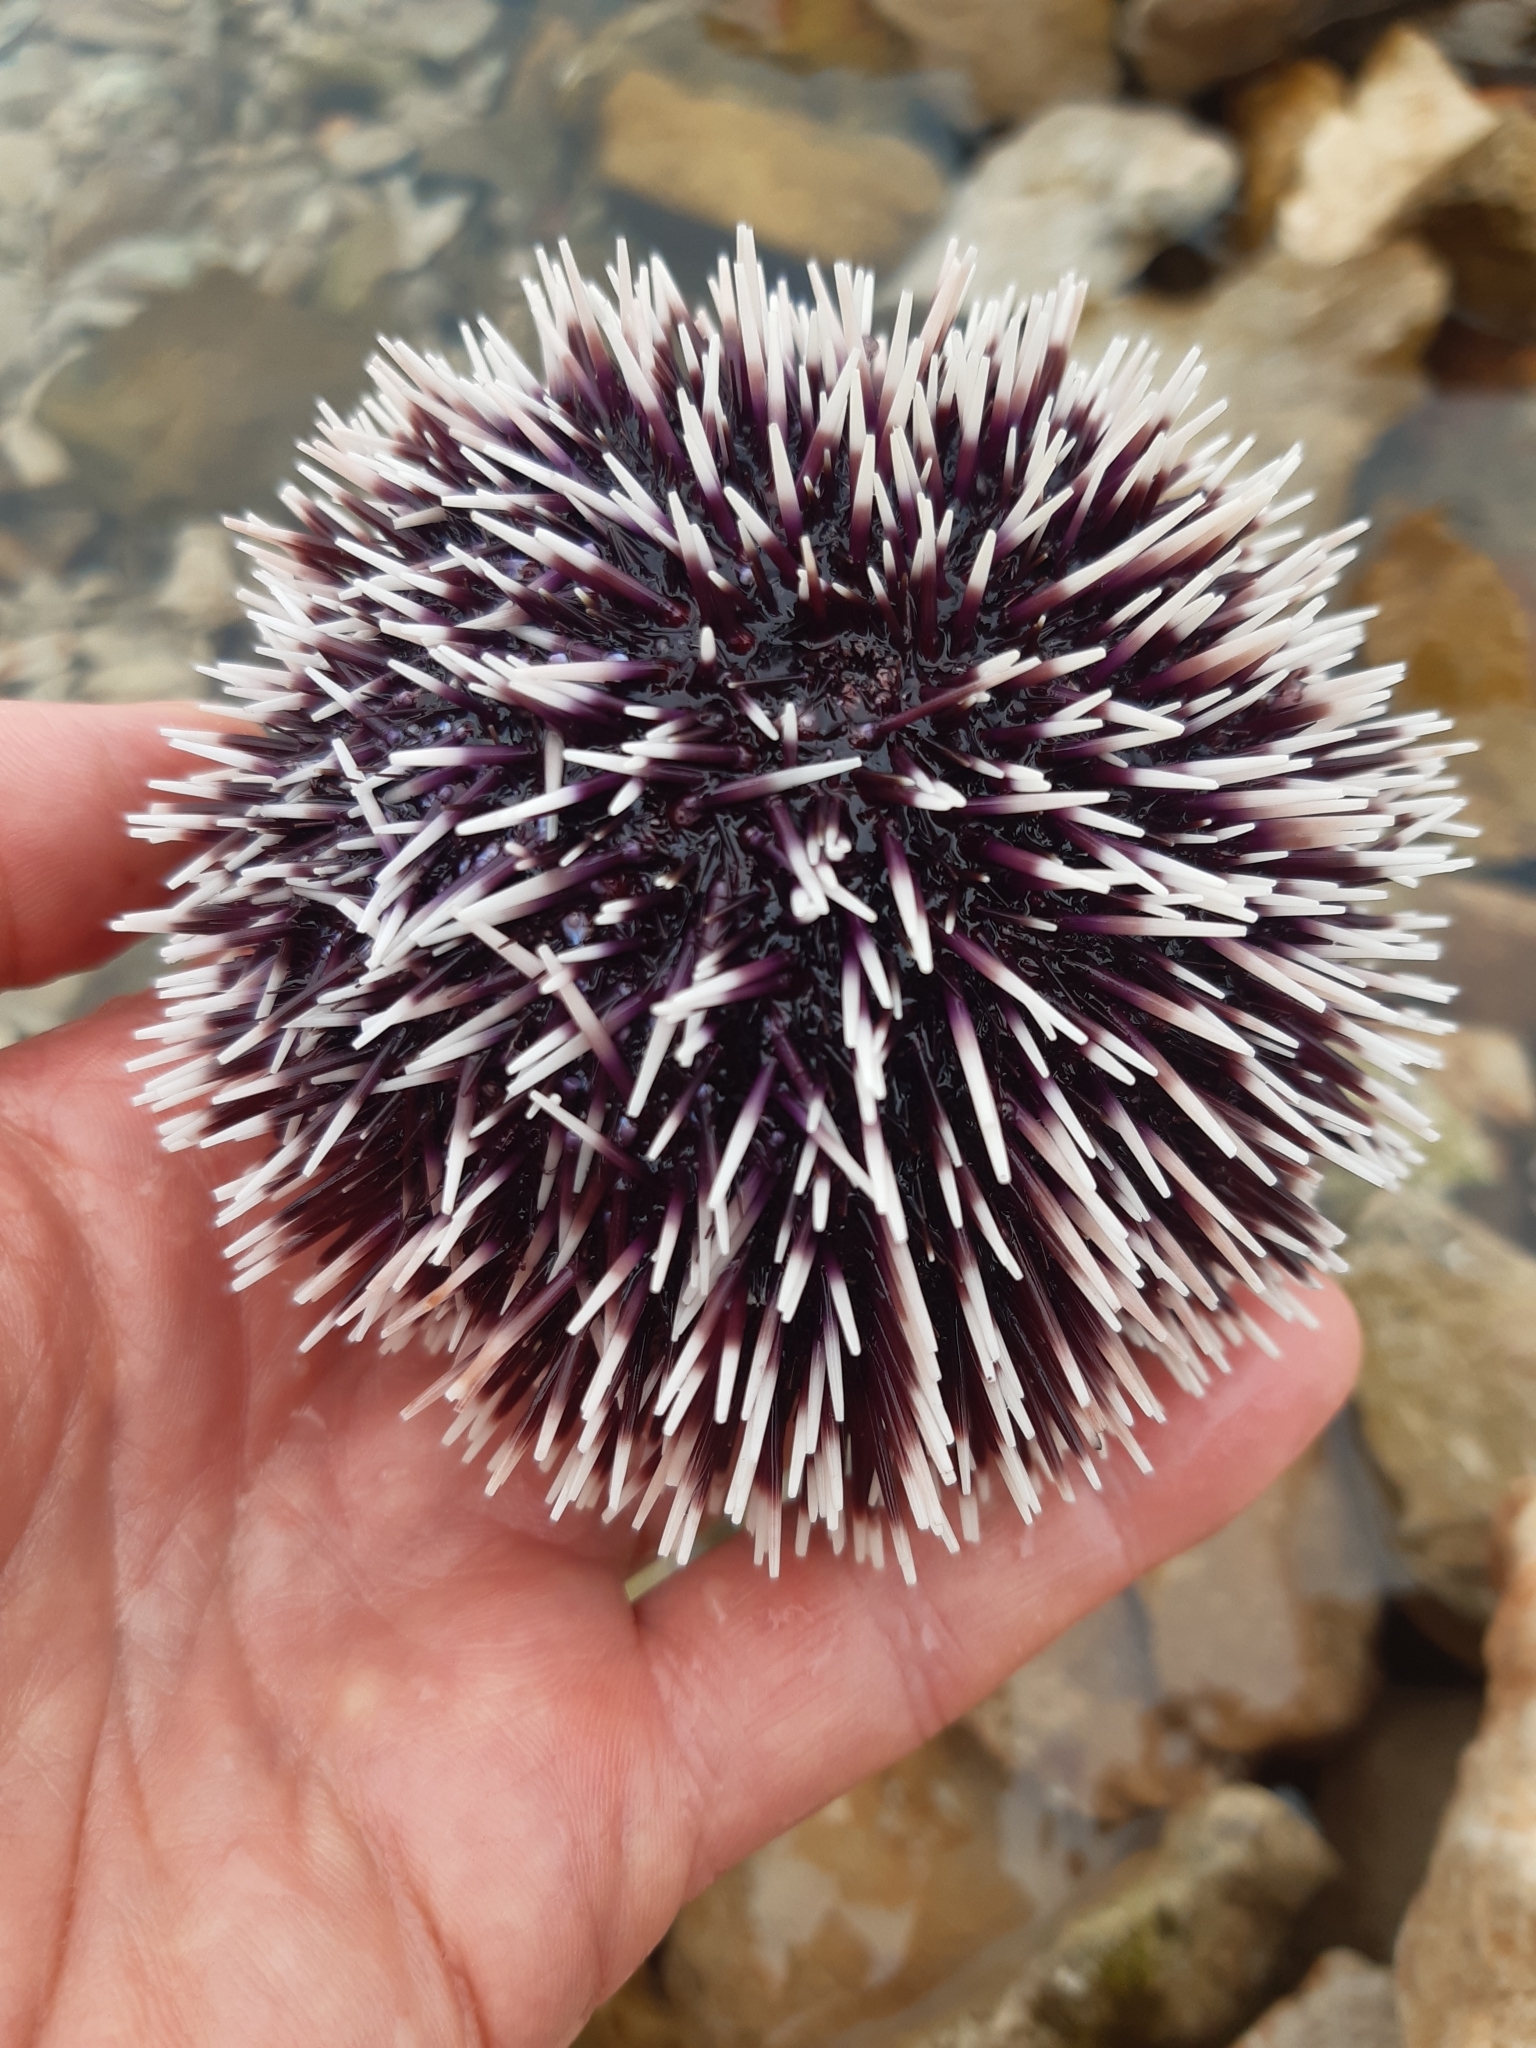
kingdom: Animalia
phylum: Echinodermata
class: Echinoidea
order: Camarodonta
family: Toxopneustidae
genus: Sphaerechinus
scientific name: Sphaerechinus granularis
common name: Violet sea urchin
